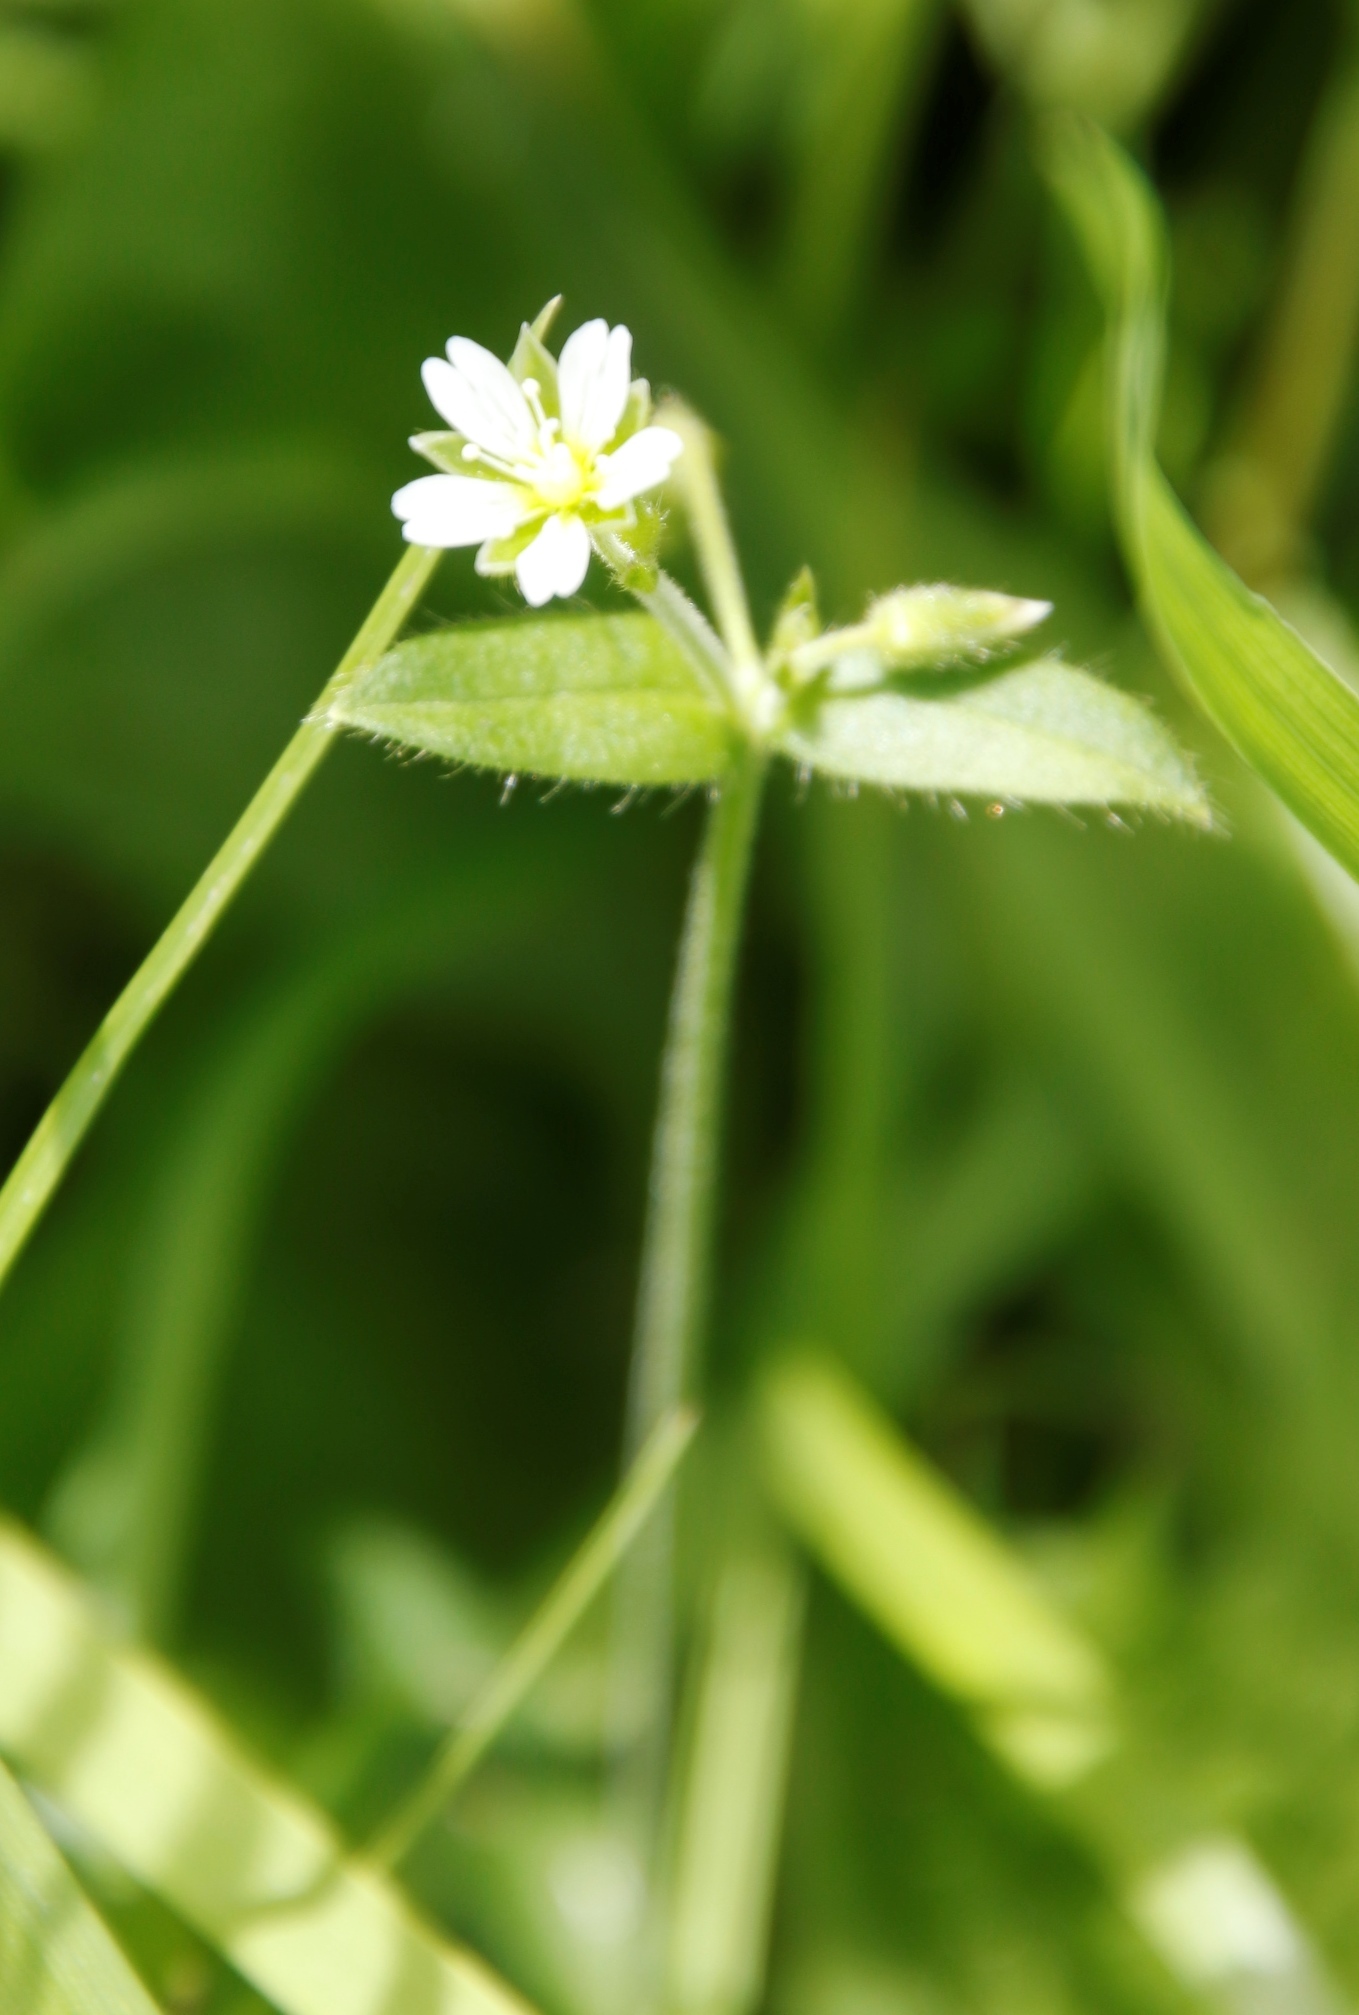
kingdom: Plantae
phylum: Tracheophyta
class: Magnoliopsida
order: Caryophyllales
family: Caryophyllaceae
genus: Cerastium
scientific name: Cerastium fontanum
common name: Common mouse-ear
